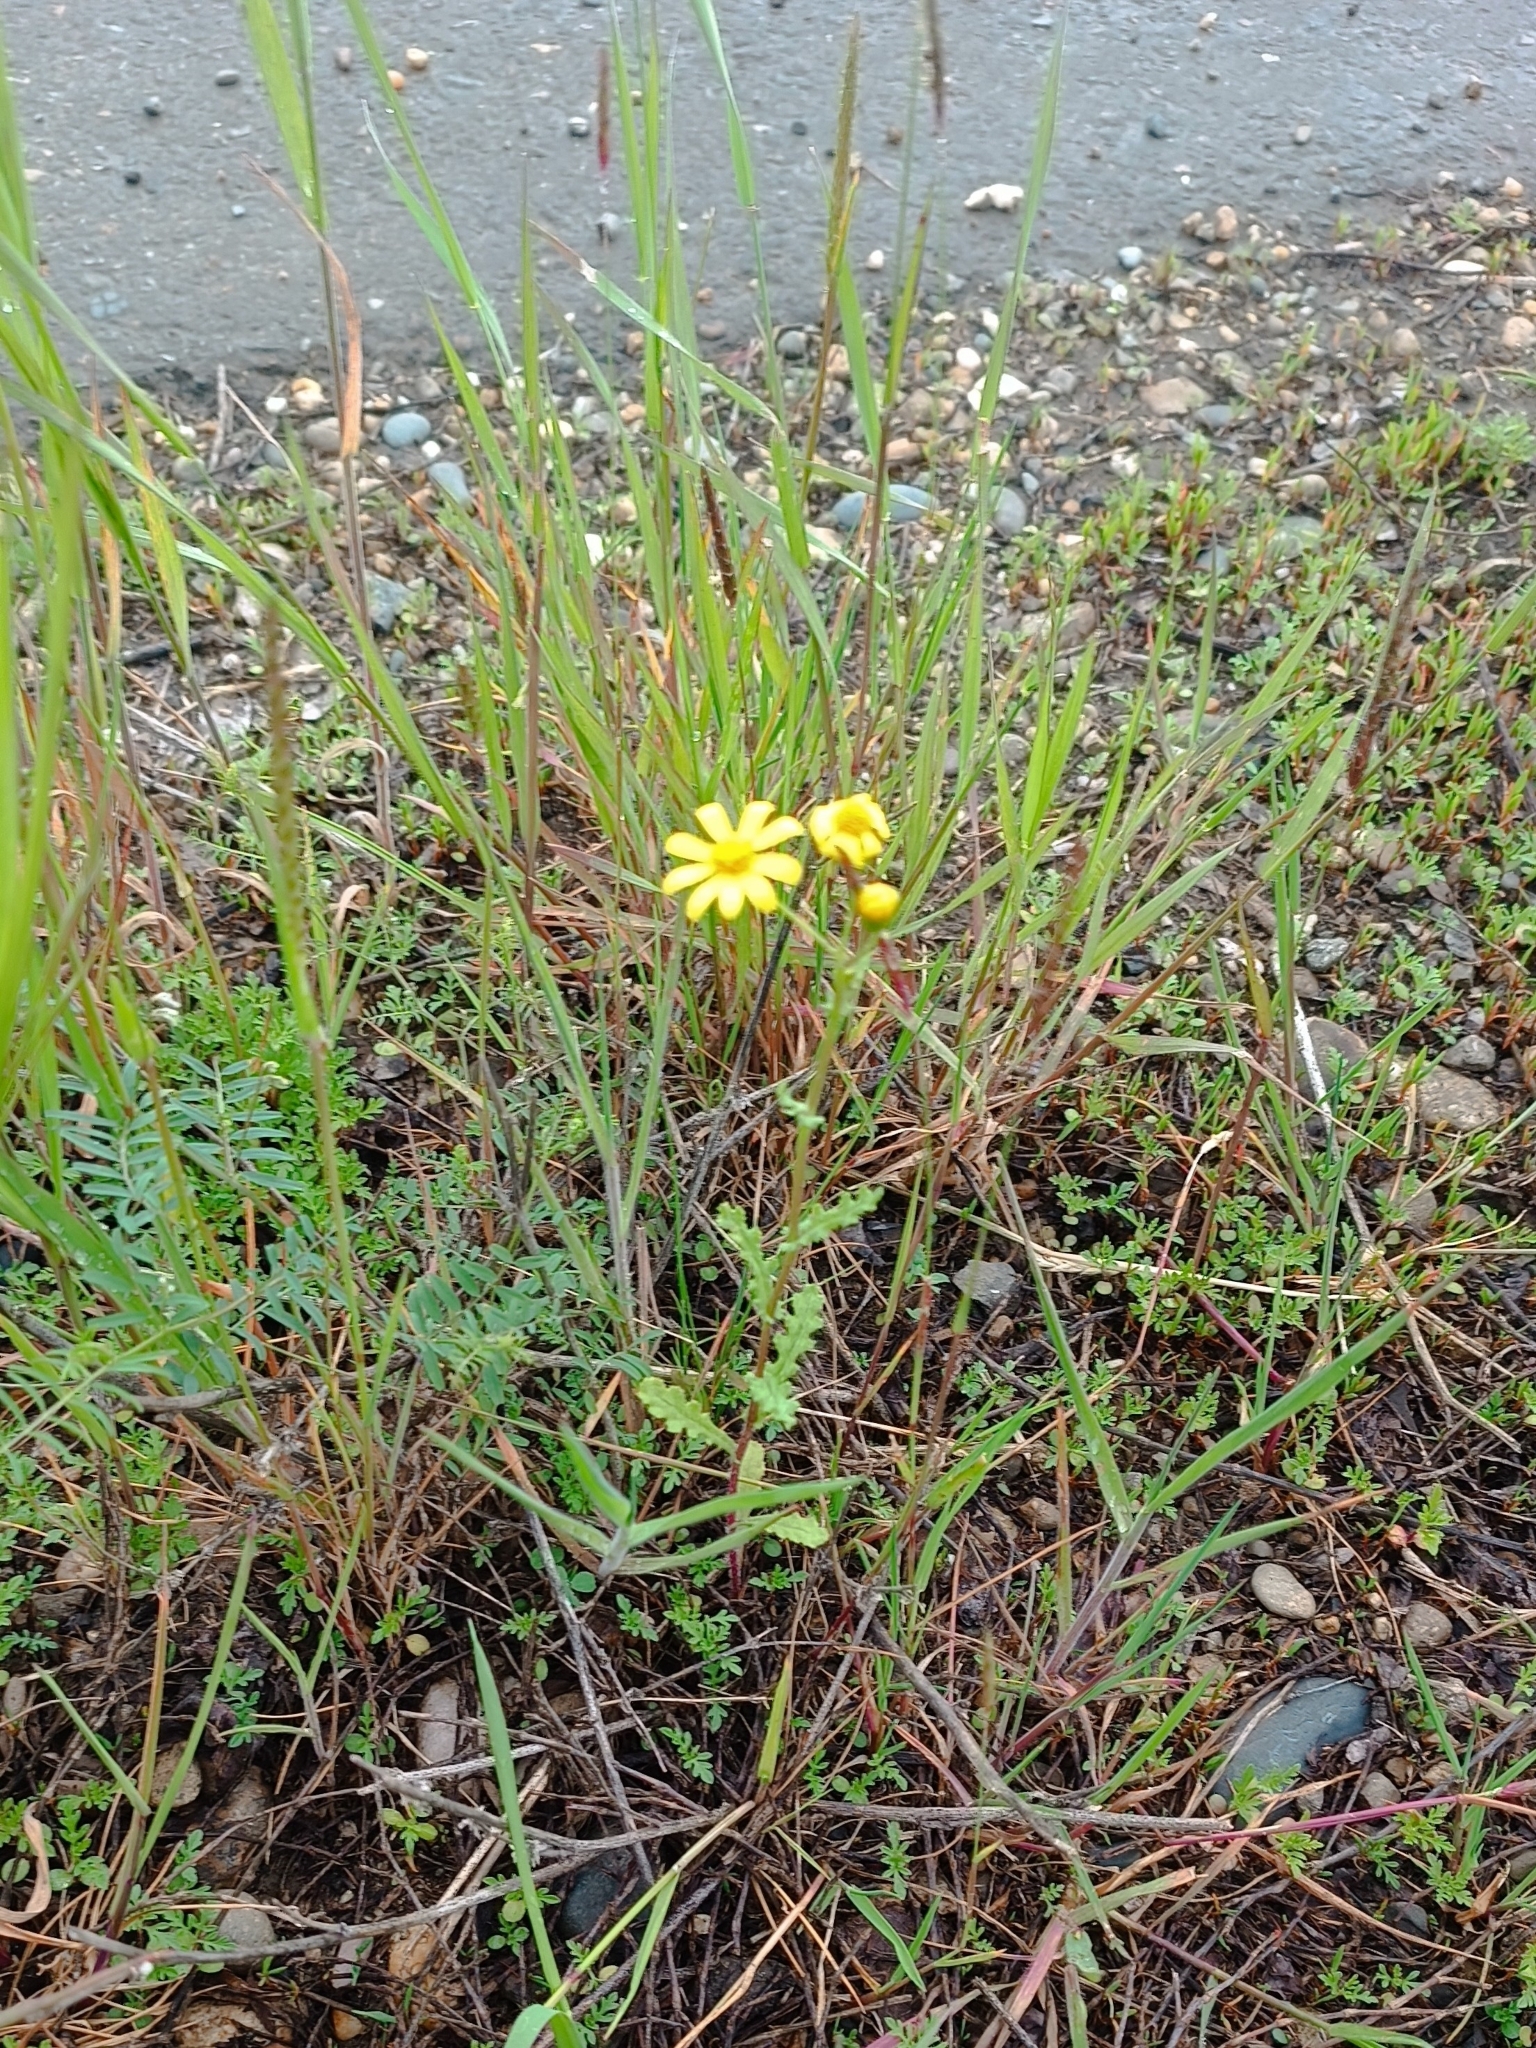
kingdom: Plantae
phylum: Tracheophyta
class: Magnoliopsida
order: Asterales
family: Asteraceae
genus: Senecio
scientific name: Senecio vernalis
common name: Eastern groundsel
